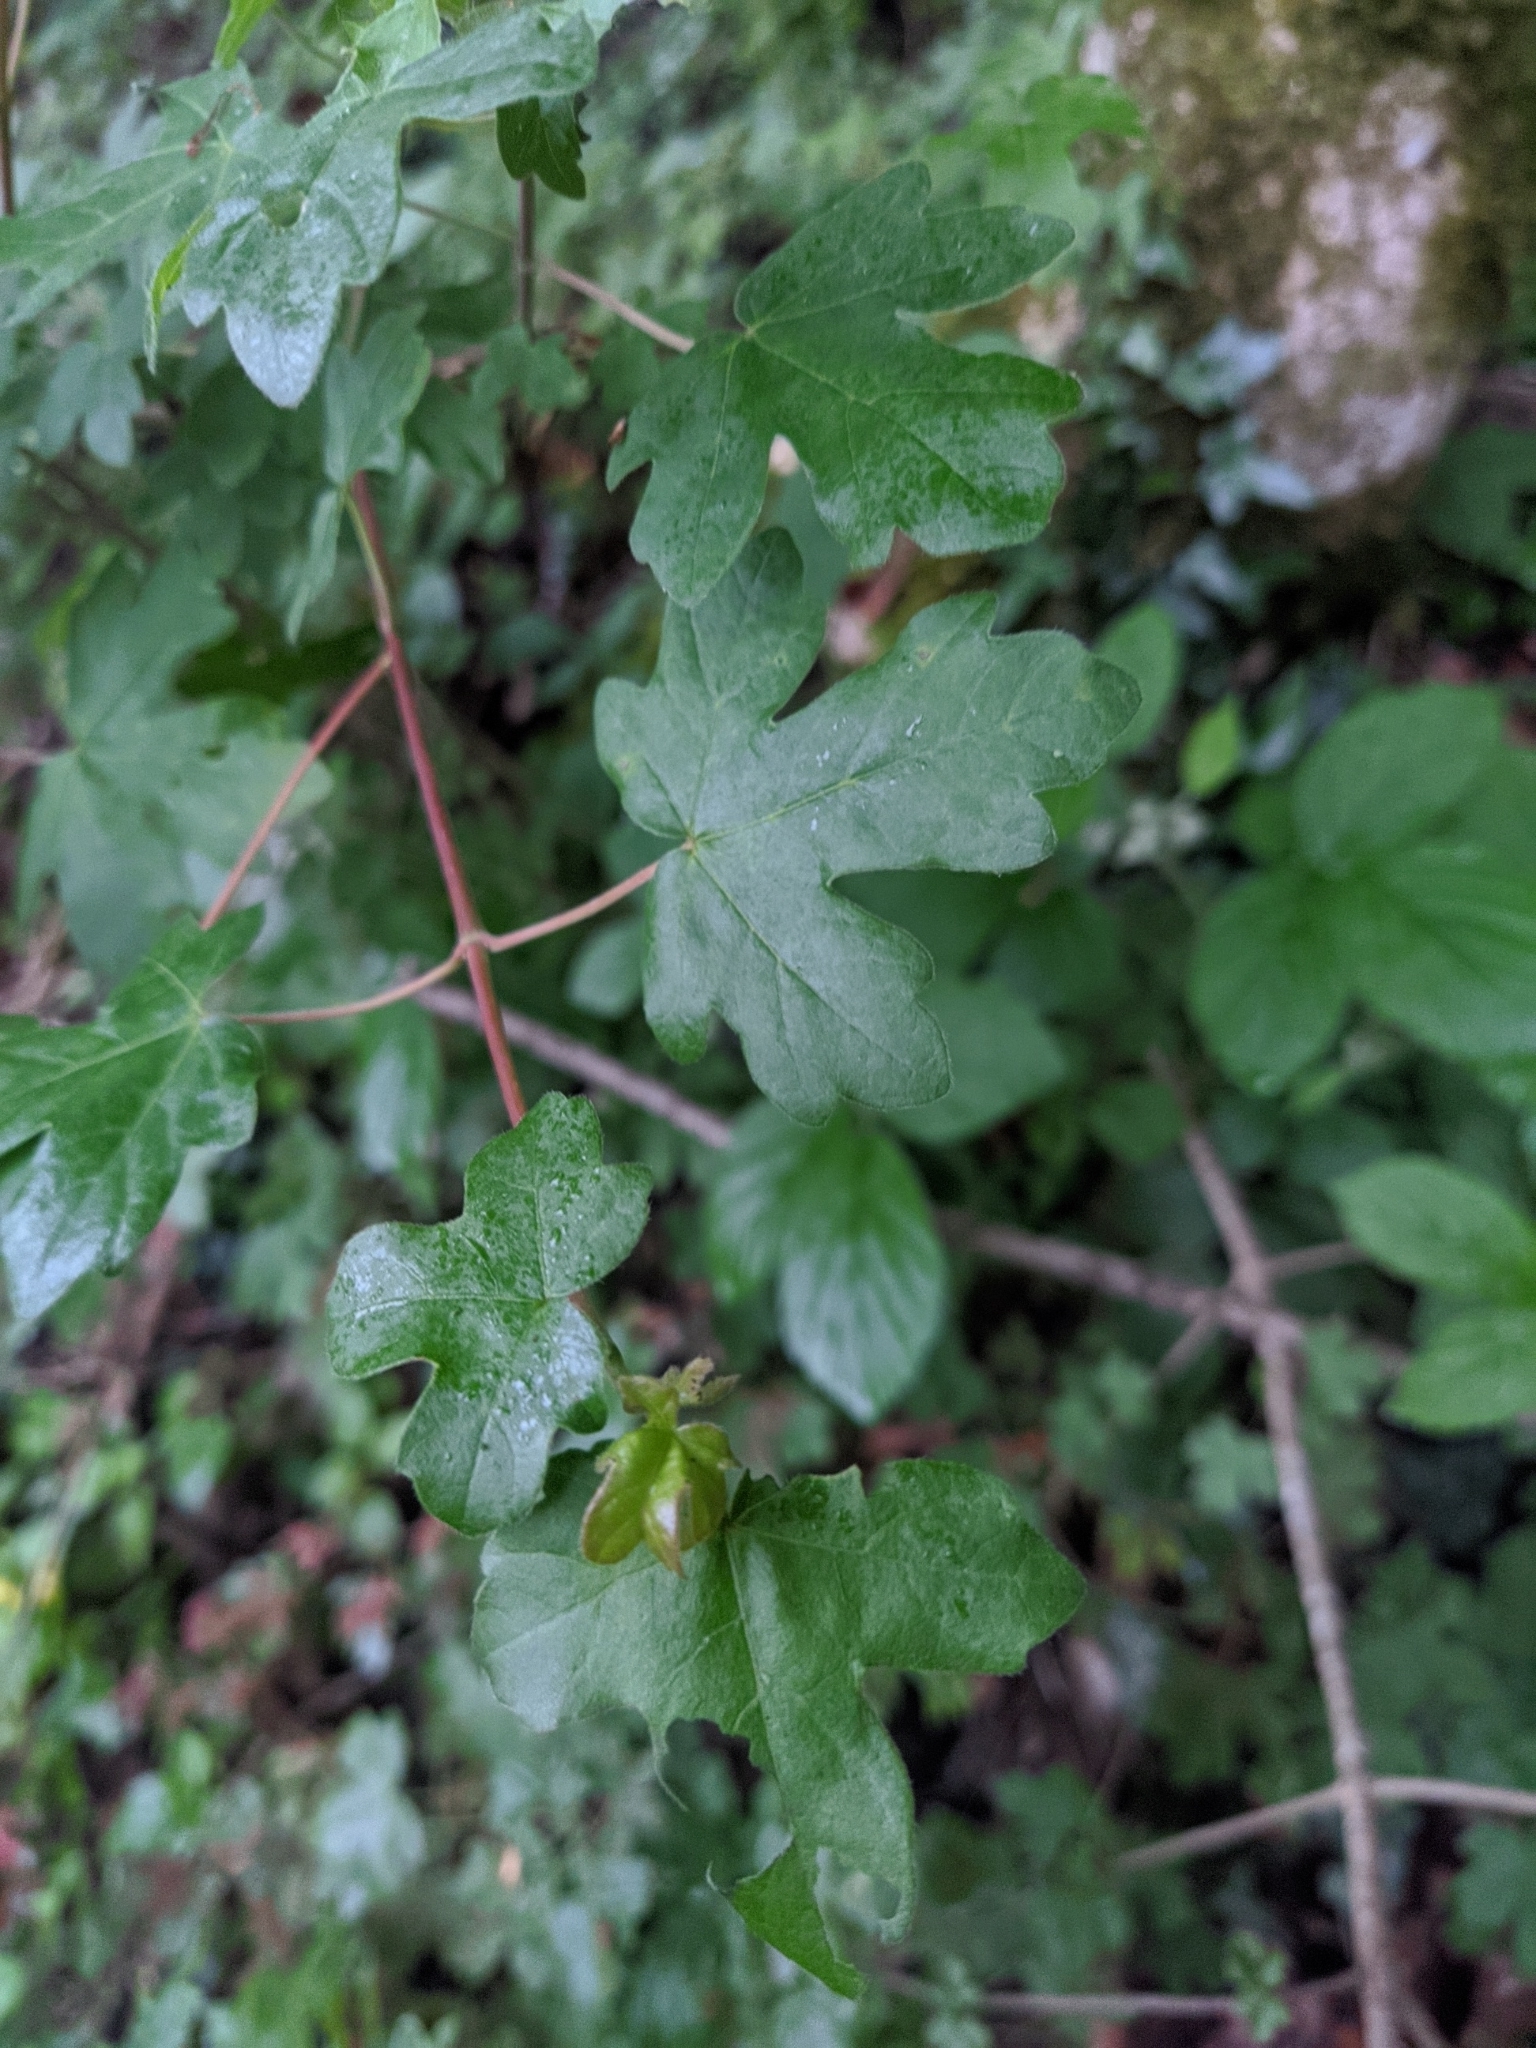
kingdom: Plantae
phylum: Tracheophyta
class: Magnoliopsida
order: Sapindales
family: Sapindaceae
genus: Acer
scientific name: Acer campestre
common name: Field maple
